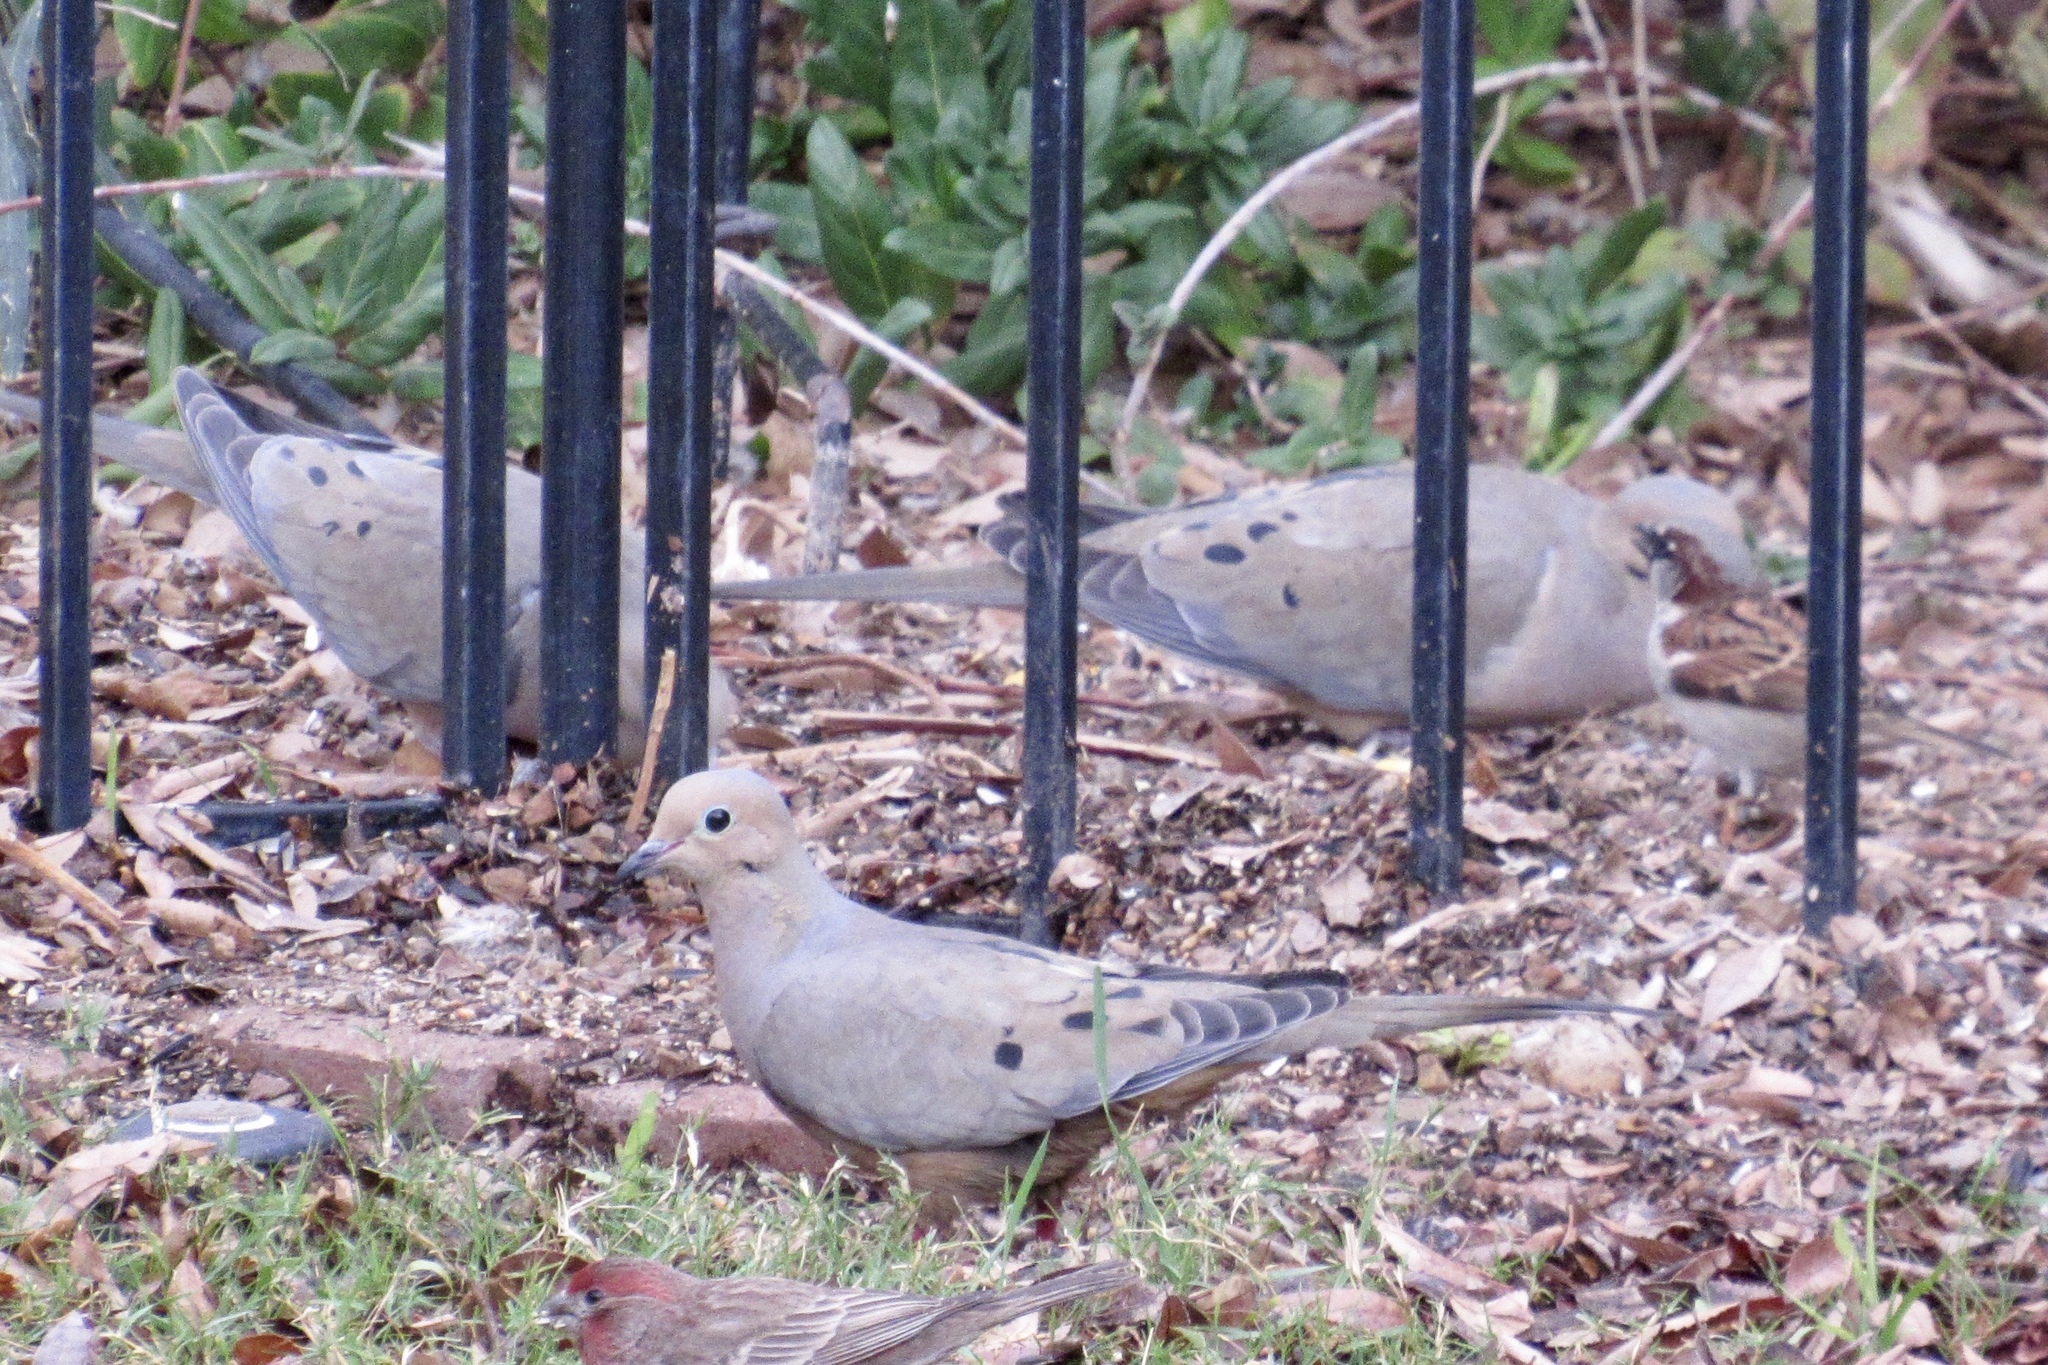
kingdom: Animalia
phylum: Chordata
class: Aves
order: Columbiformes
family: Columbidae
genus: Zenaida
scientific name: Zenaida macroura
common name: Mourning dove
